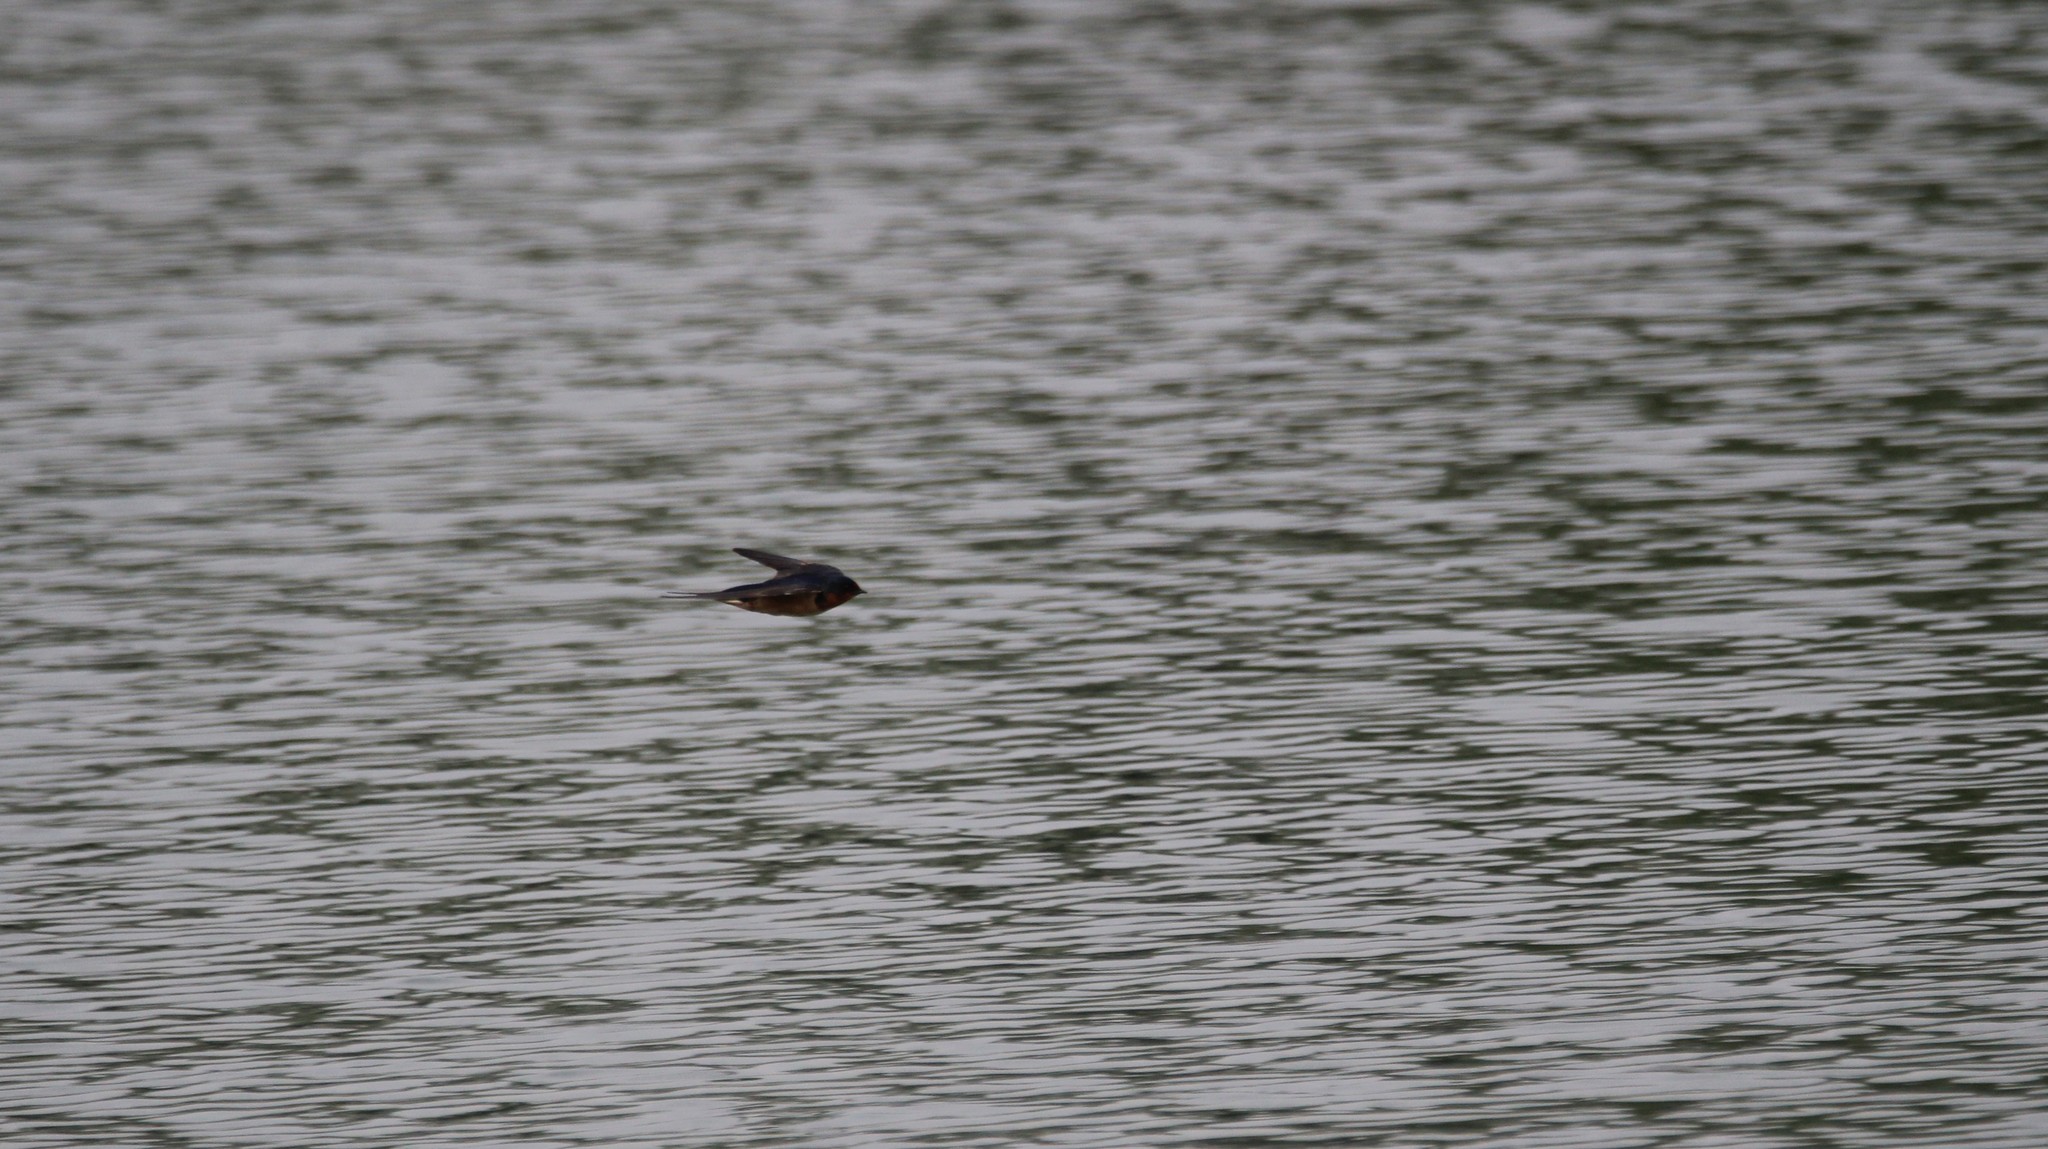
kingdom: Animalia
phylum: Chordata
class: Aves
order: Passeriformes
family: Hirundinidae
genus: Hirundo
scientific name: Hirundo rustica
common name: Barn swallow
